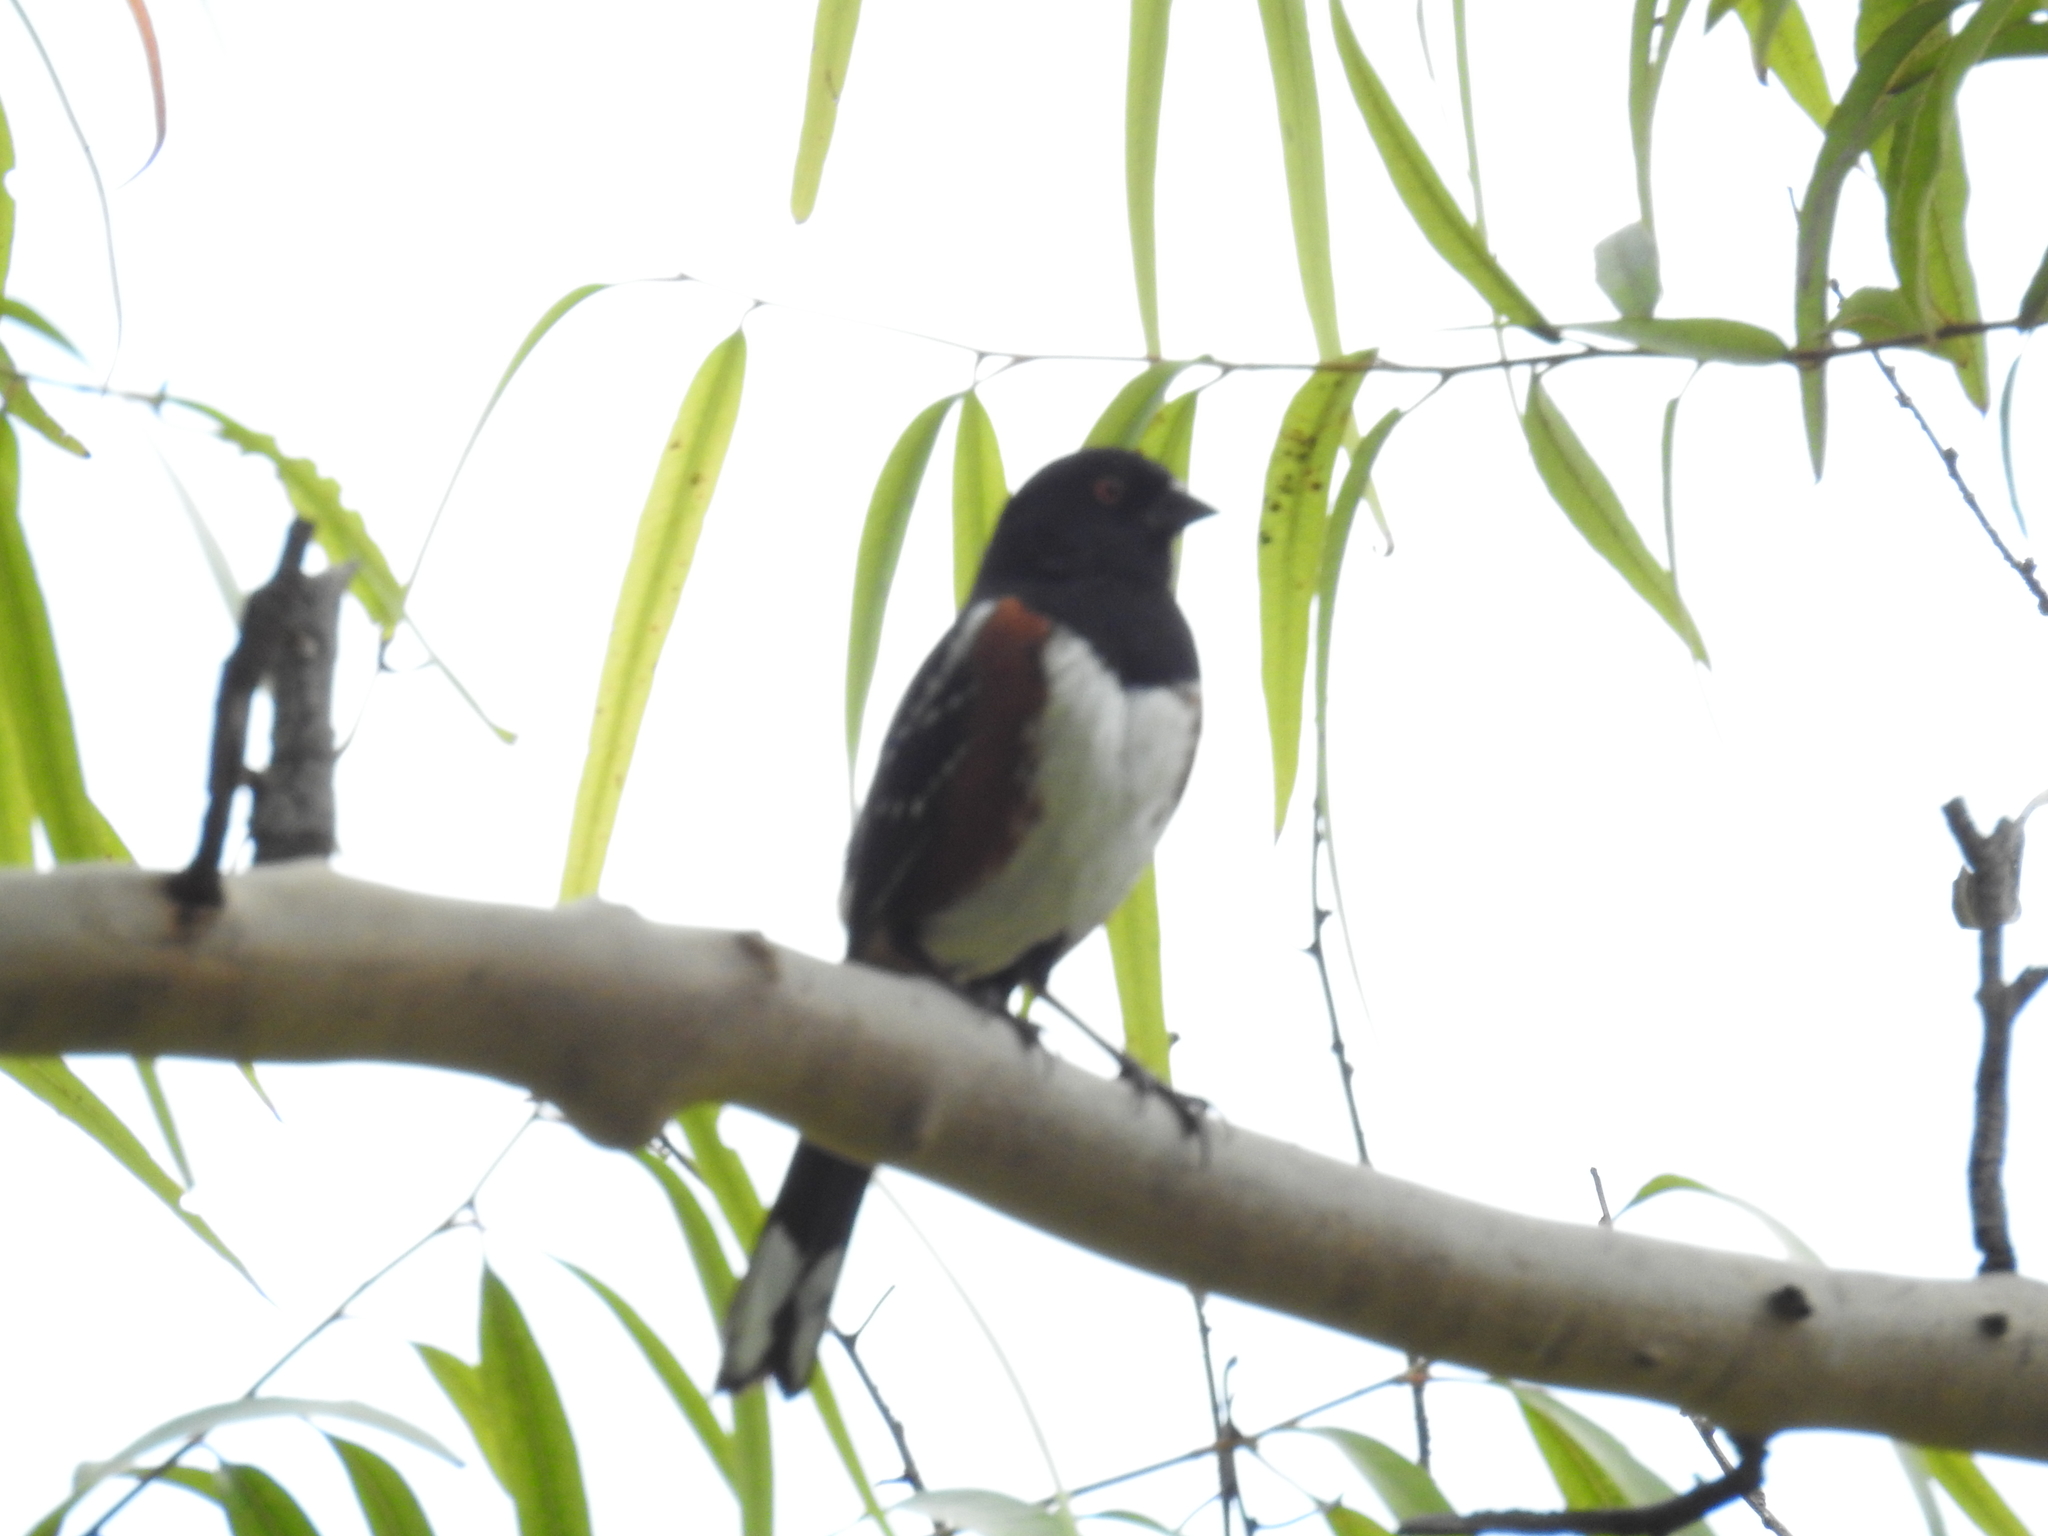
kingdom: Animalia
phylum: Chordata
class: Aves
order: Passeriformes
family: Passerellidae
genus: Pipilo
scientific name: Pipilo maculatus
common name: Spotted towhee
